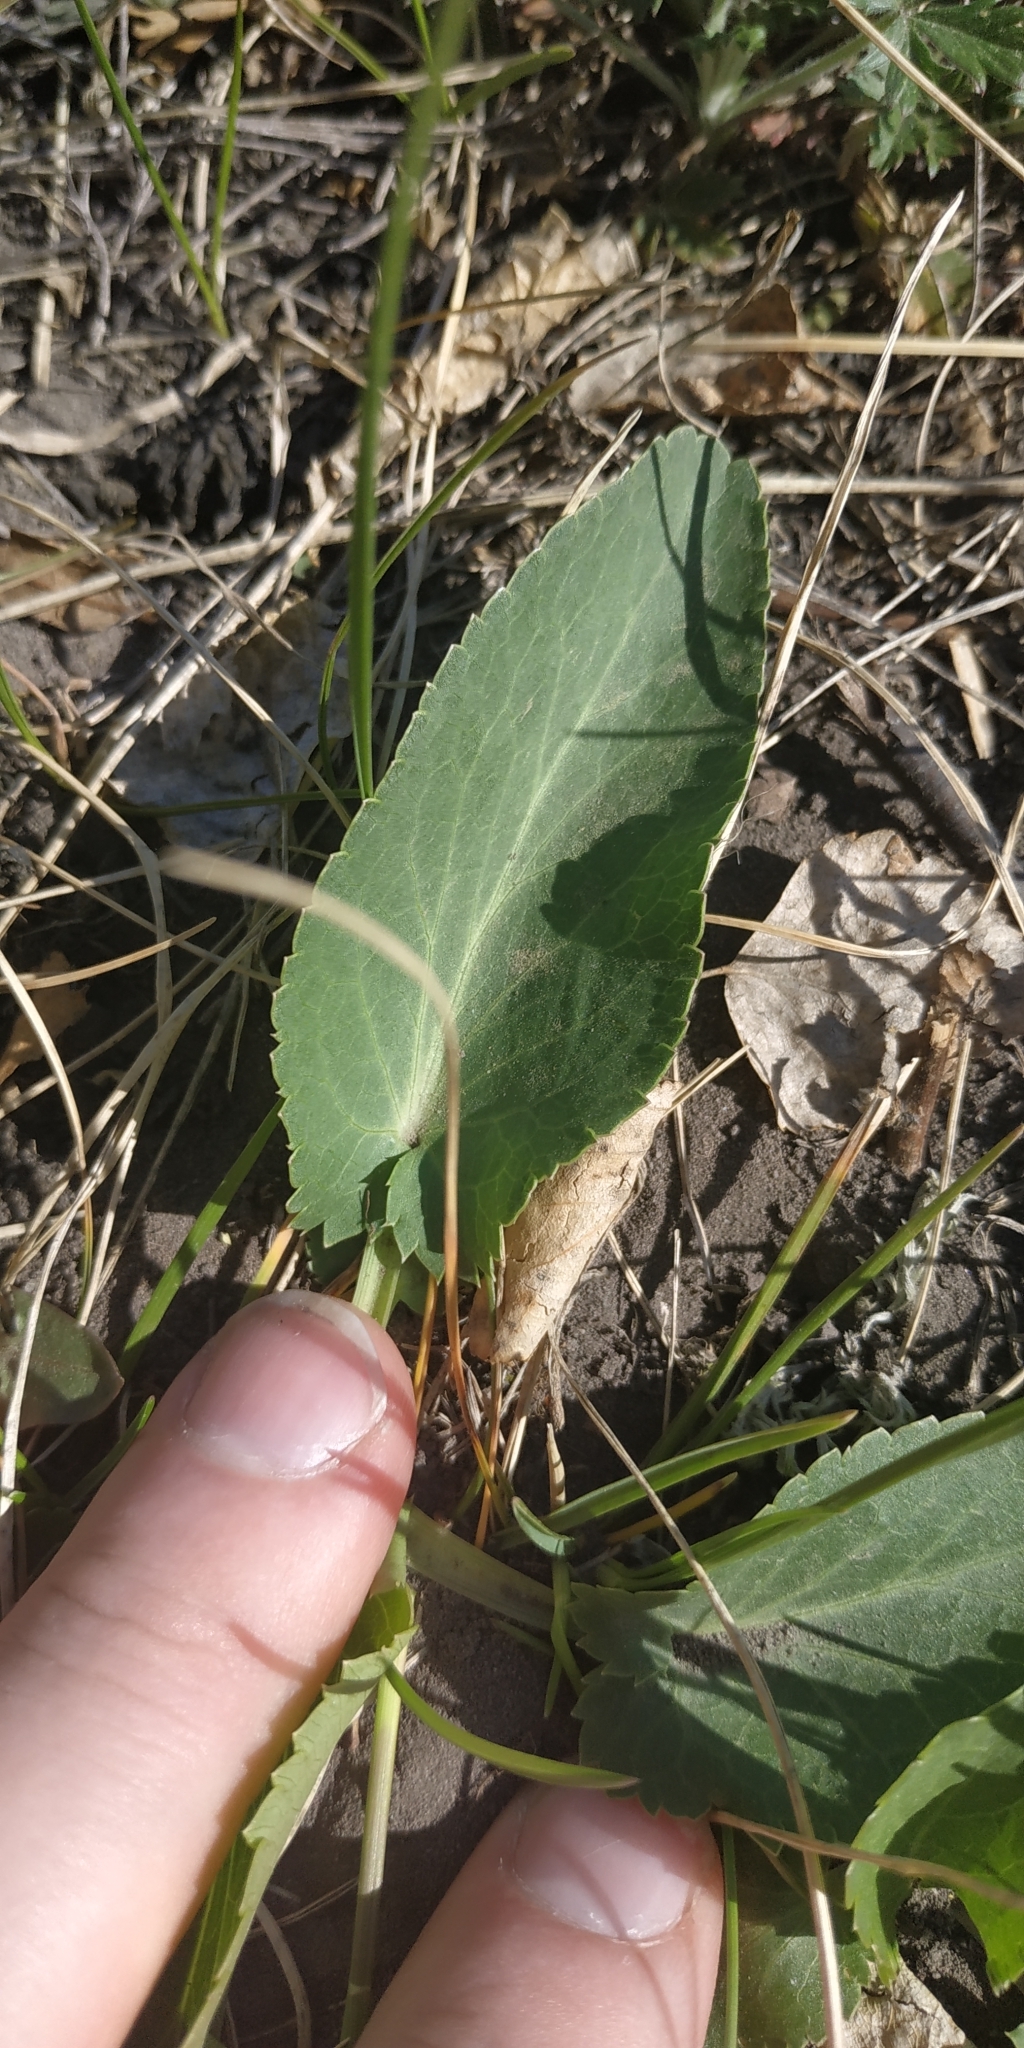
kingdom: Plantae
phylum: Tracheophyta
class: Magnoliopsida
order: Apiales
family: Apiaceae
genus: Eryngium
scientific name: Eryngium planum
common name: Blue eryngo
